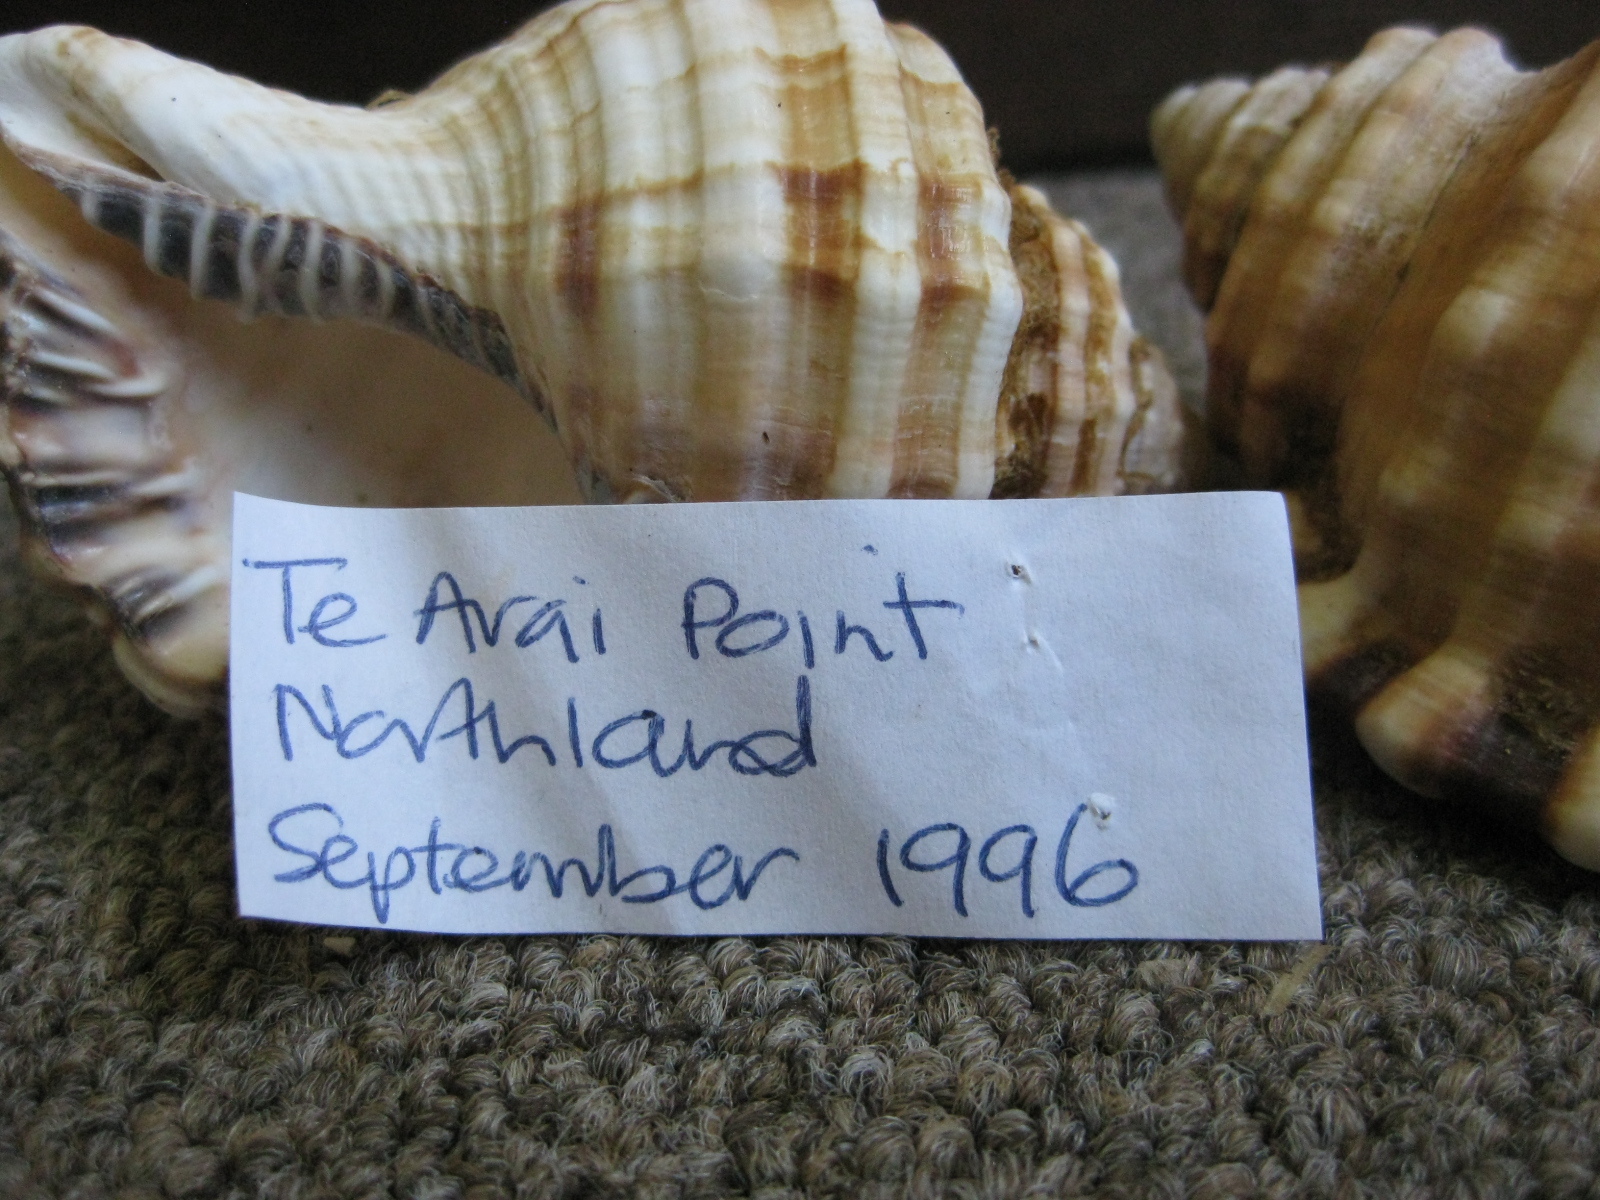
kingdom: Animalia
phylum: Mollusca
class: Gastropoda
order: Littorinimorpha
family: Cymatiidae
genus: Monoplex
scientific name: Monoplex parthenopeus
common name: Giant triton
